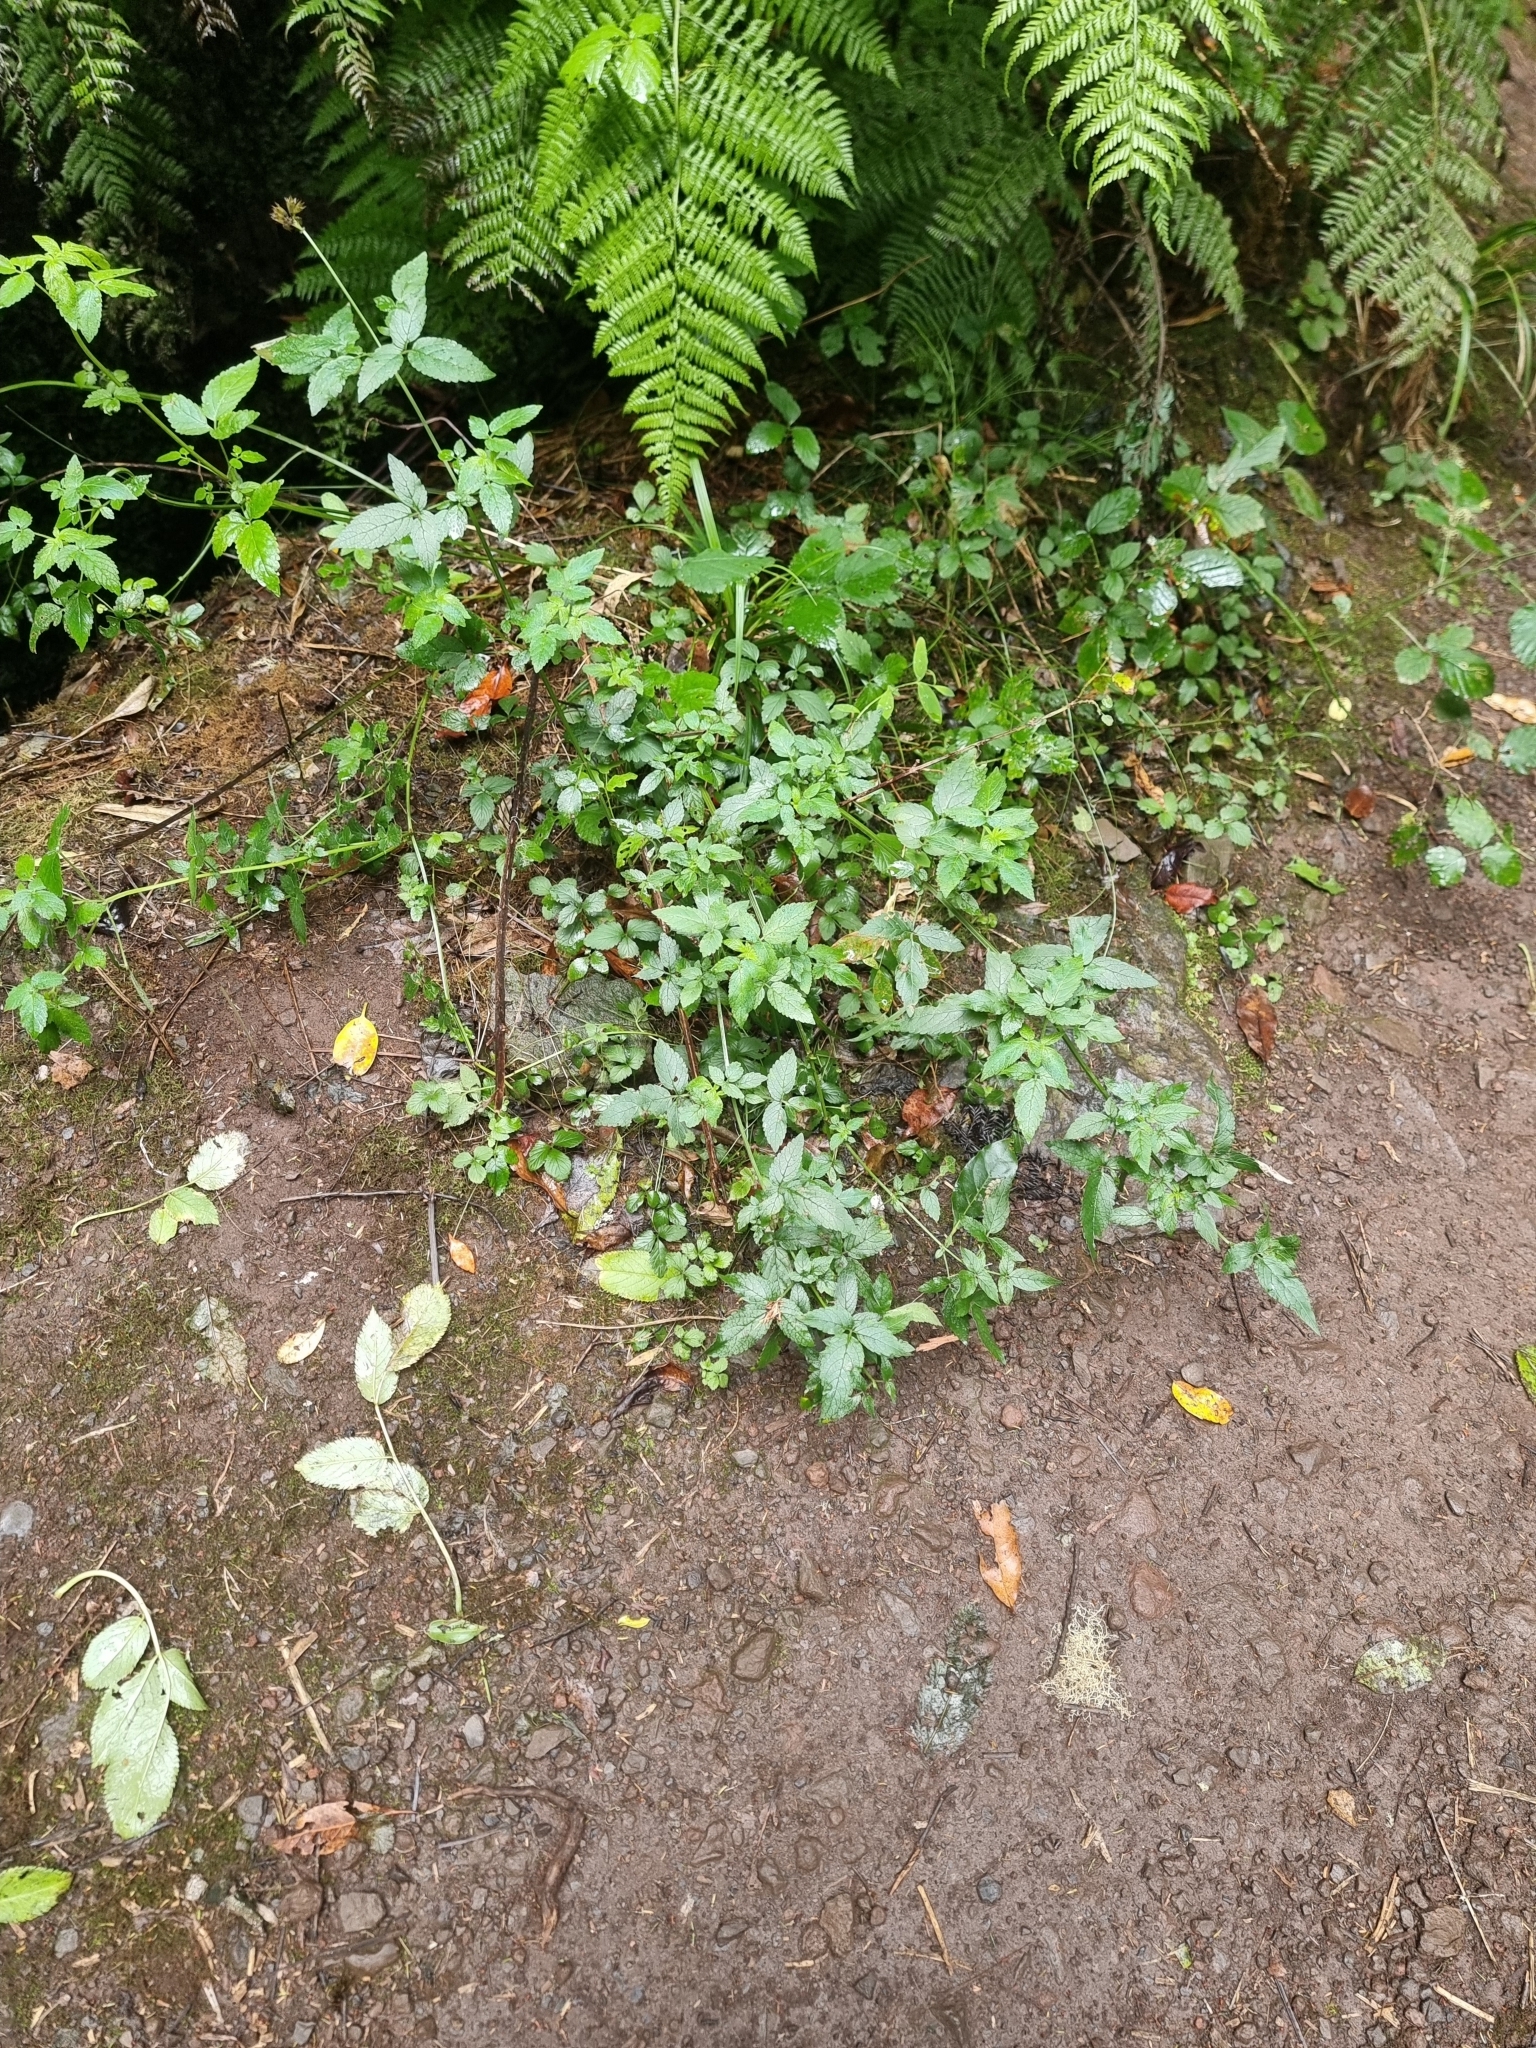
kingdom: Plantae
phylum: Tracheophyta
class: Magnoliopsida
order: Lamiales
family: Lamiaceae
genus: Cedronella
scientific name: Cedronella canariensis
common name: Canary islands balm
